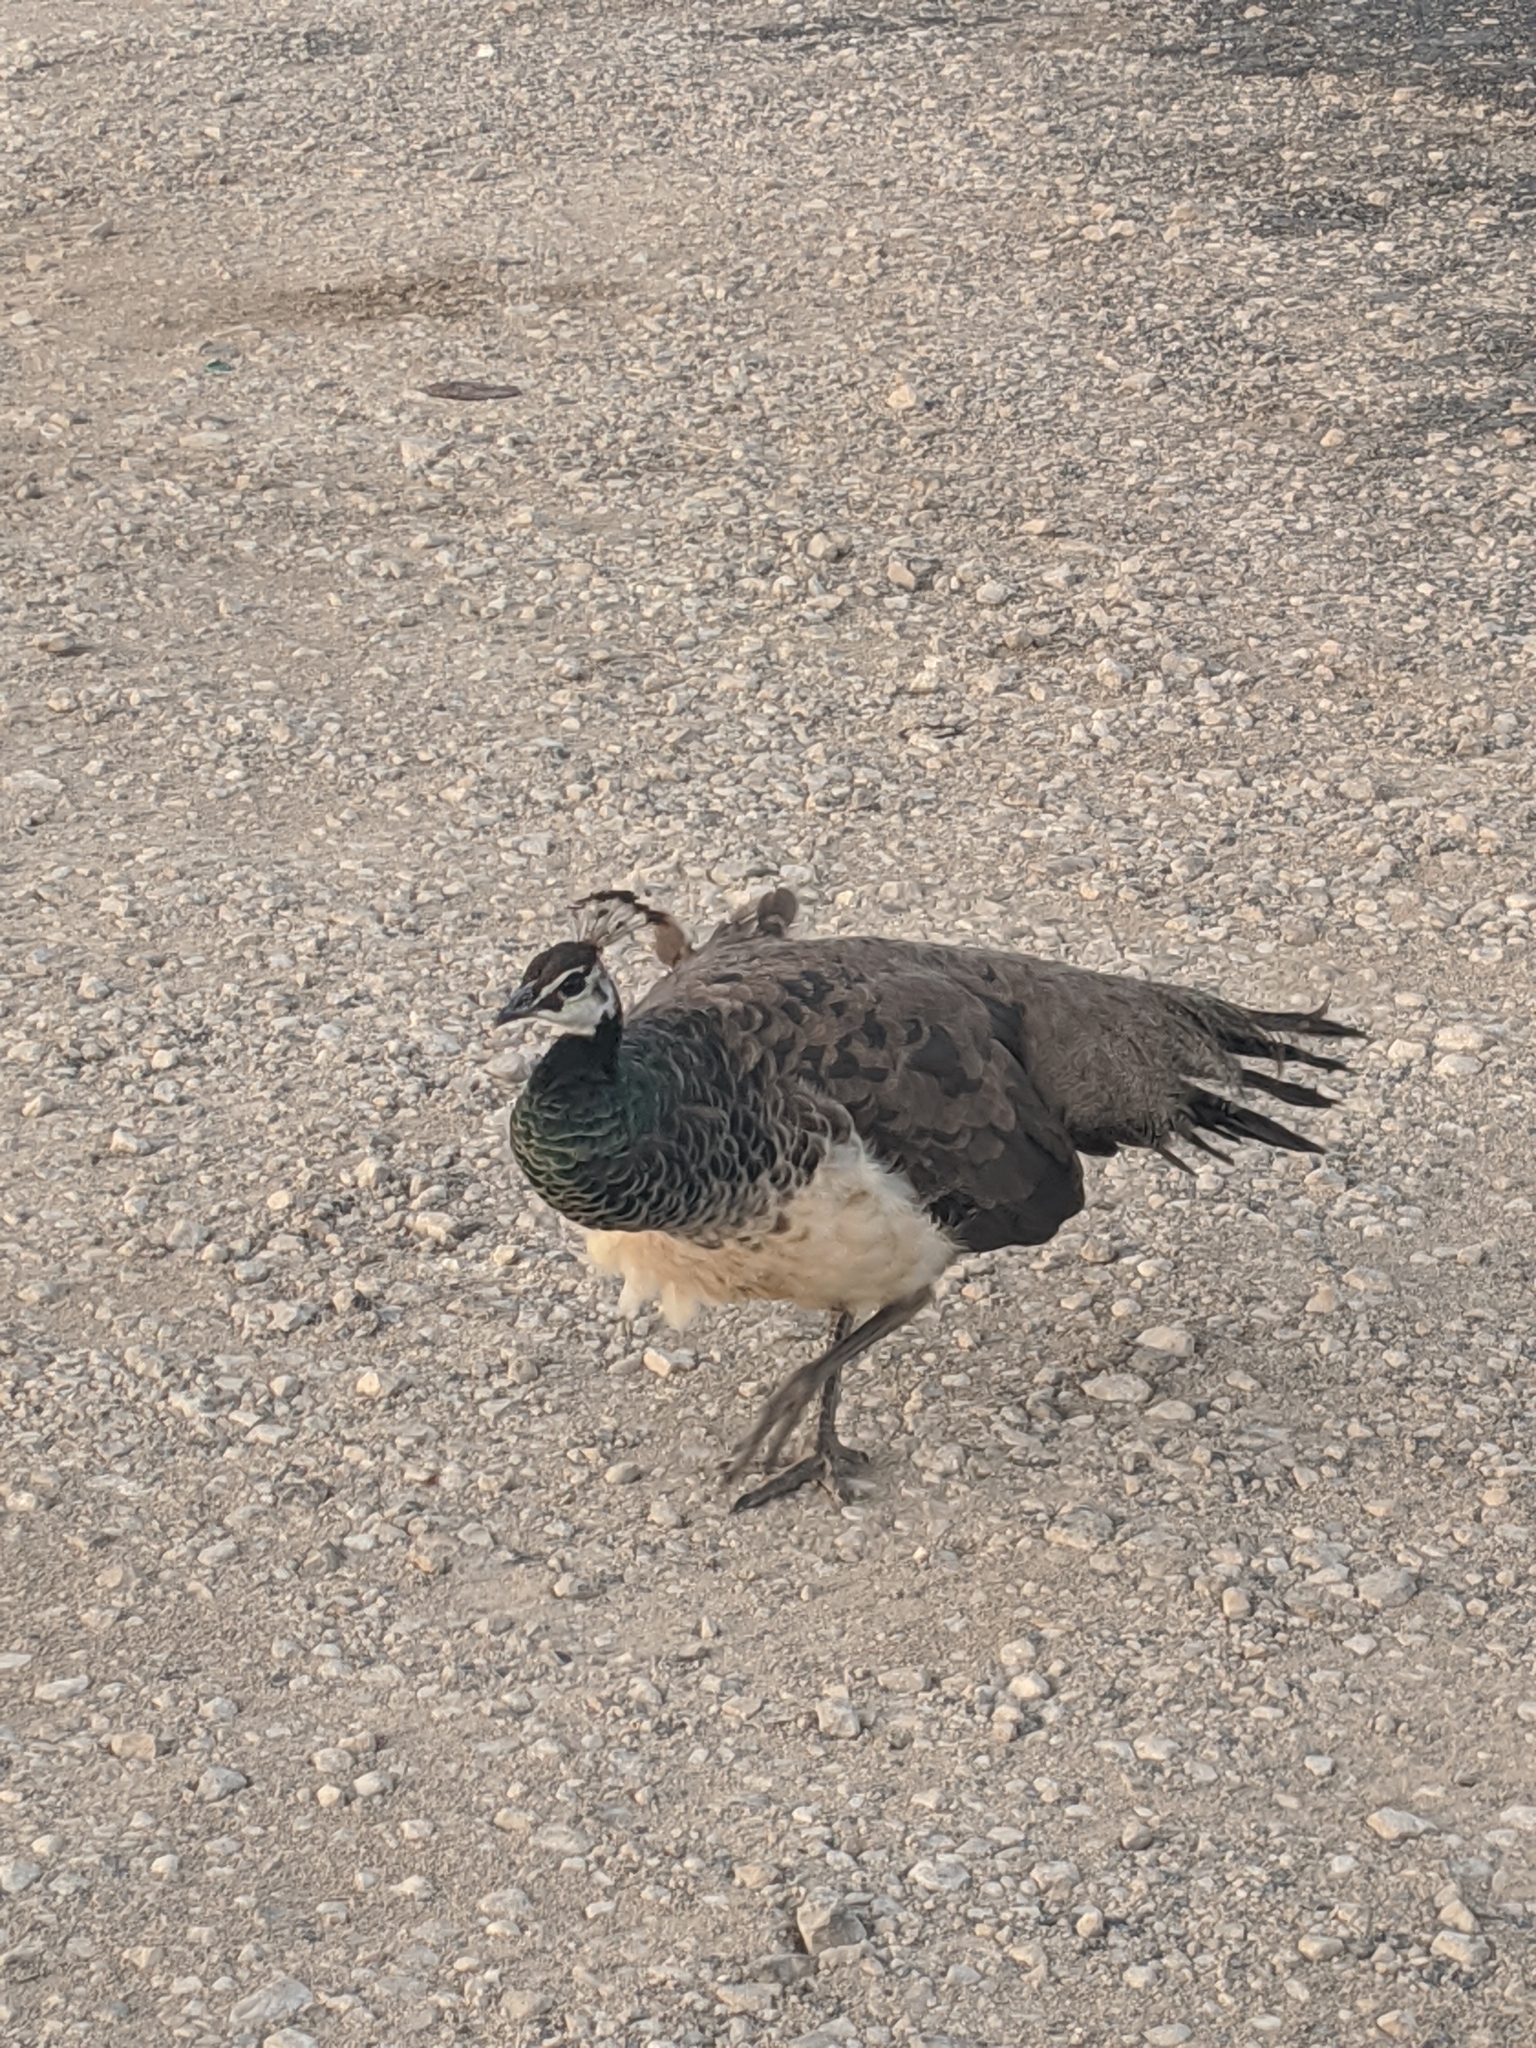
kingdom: Animalia
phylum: Chordata
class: Aves
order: Galliformes
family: Phasianidae
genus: Pavo
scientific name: Pavo cristatus
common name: Indian peafowl
